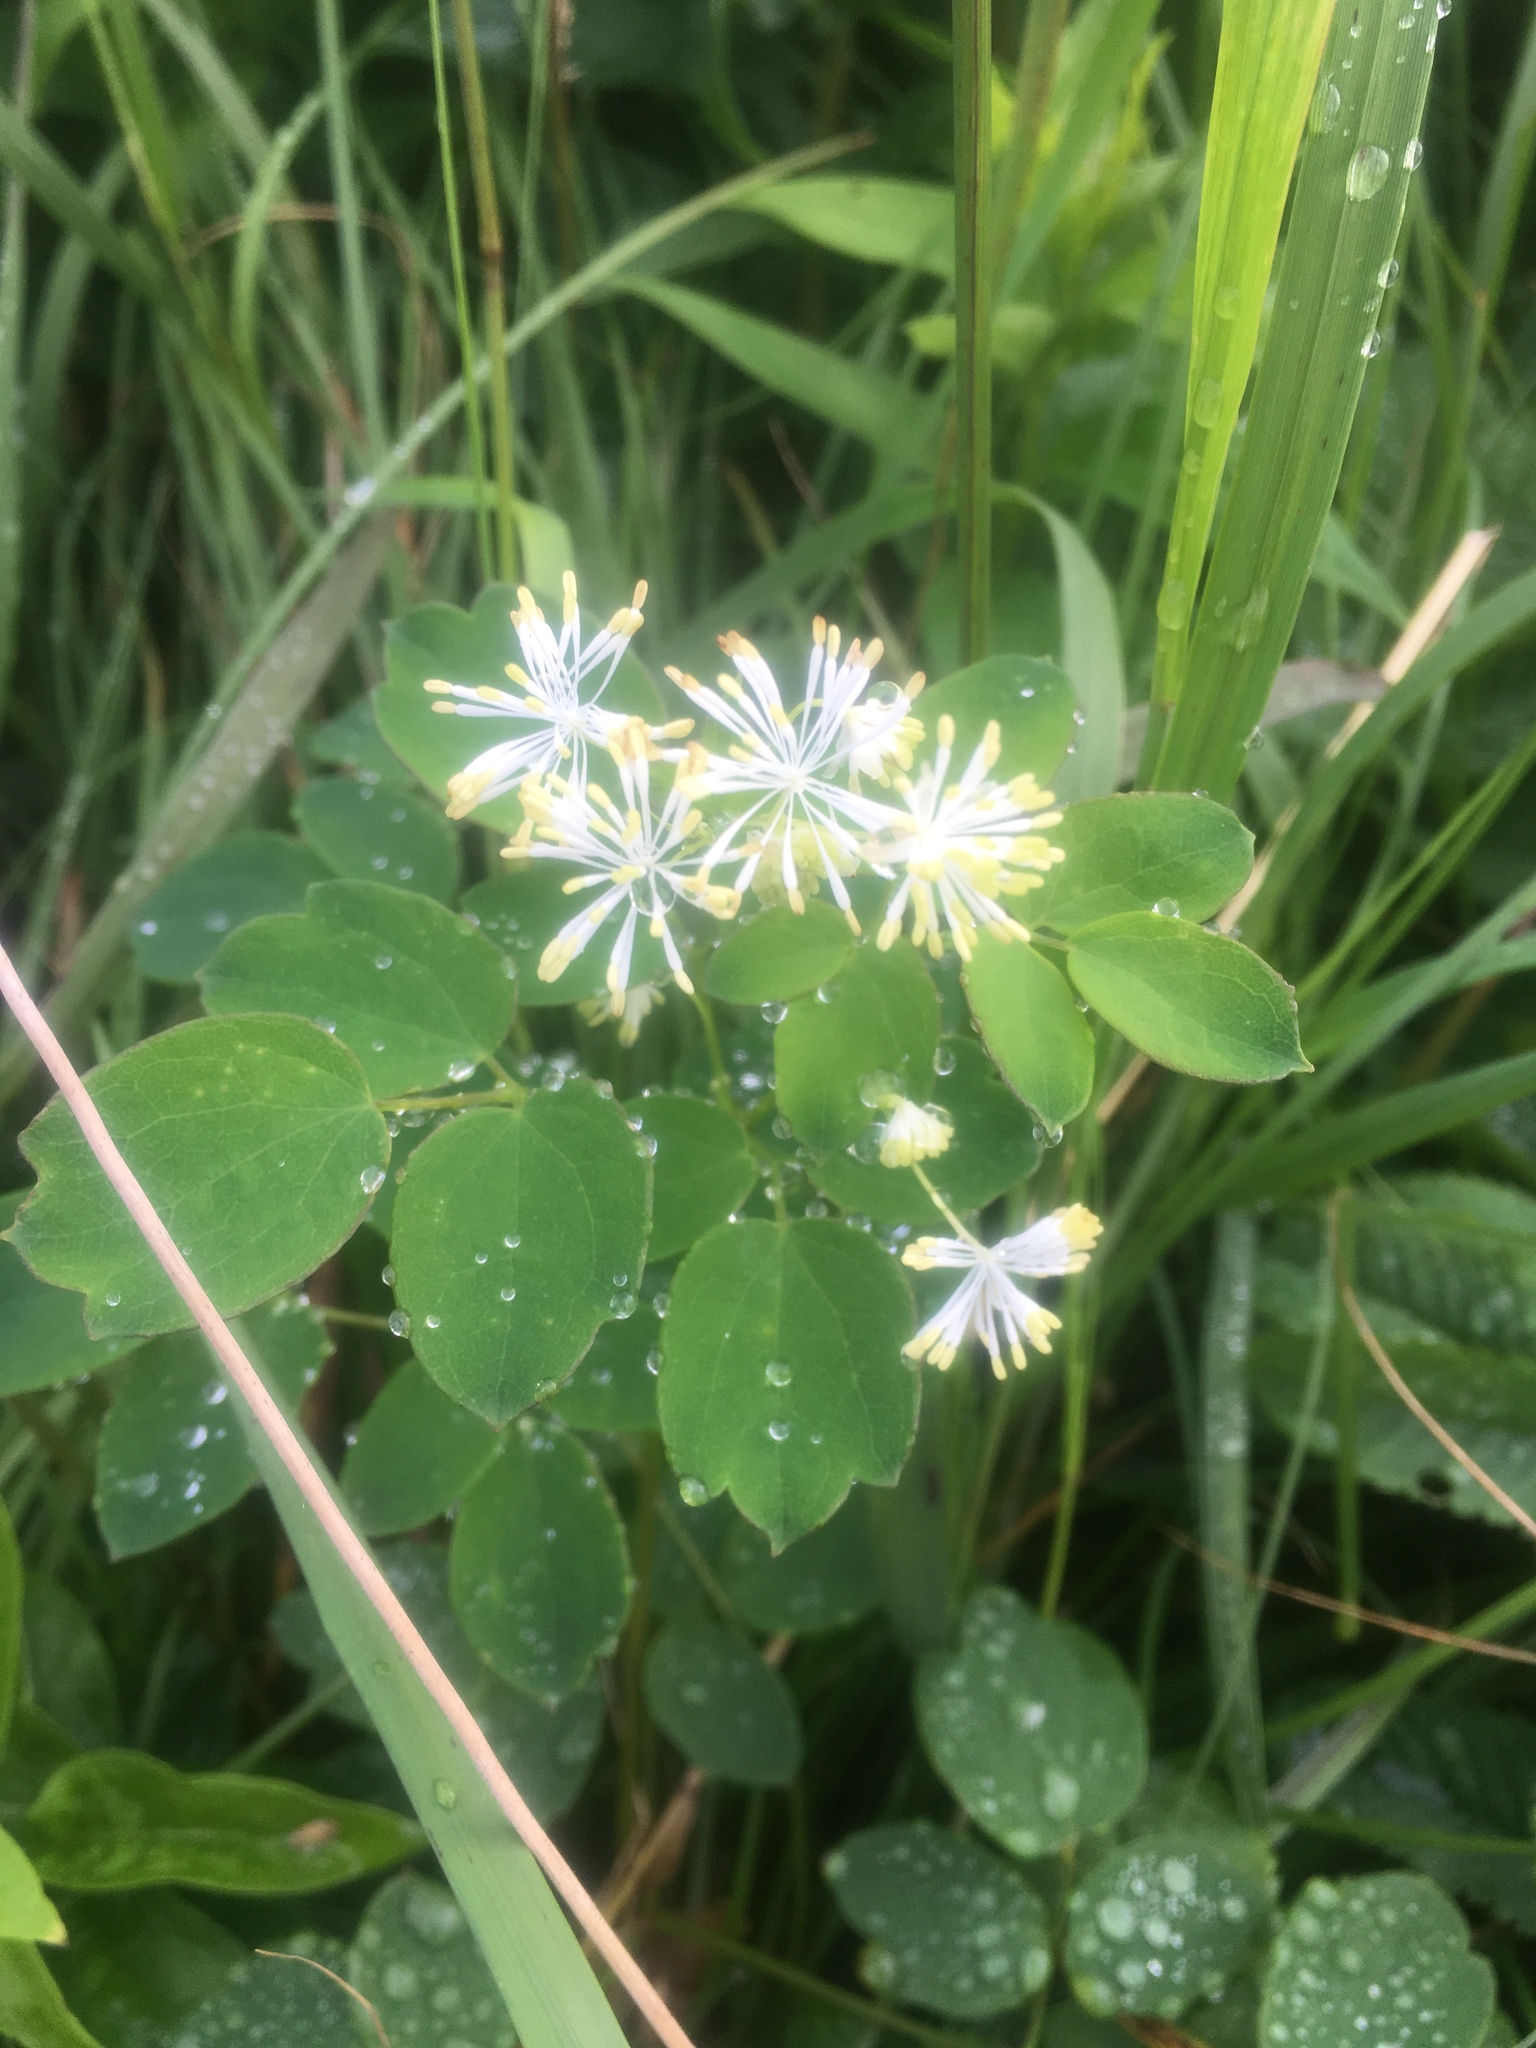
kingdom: Plantae
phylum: Tracheophyta
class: Magnoliopsida
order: Ranunculales
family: Ranunculaceae
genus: Thalictrum
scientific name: Thalictrum pubescens
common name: King-of-the-meadow
